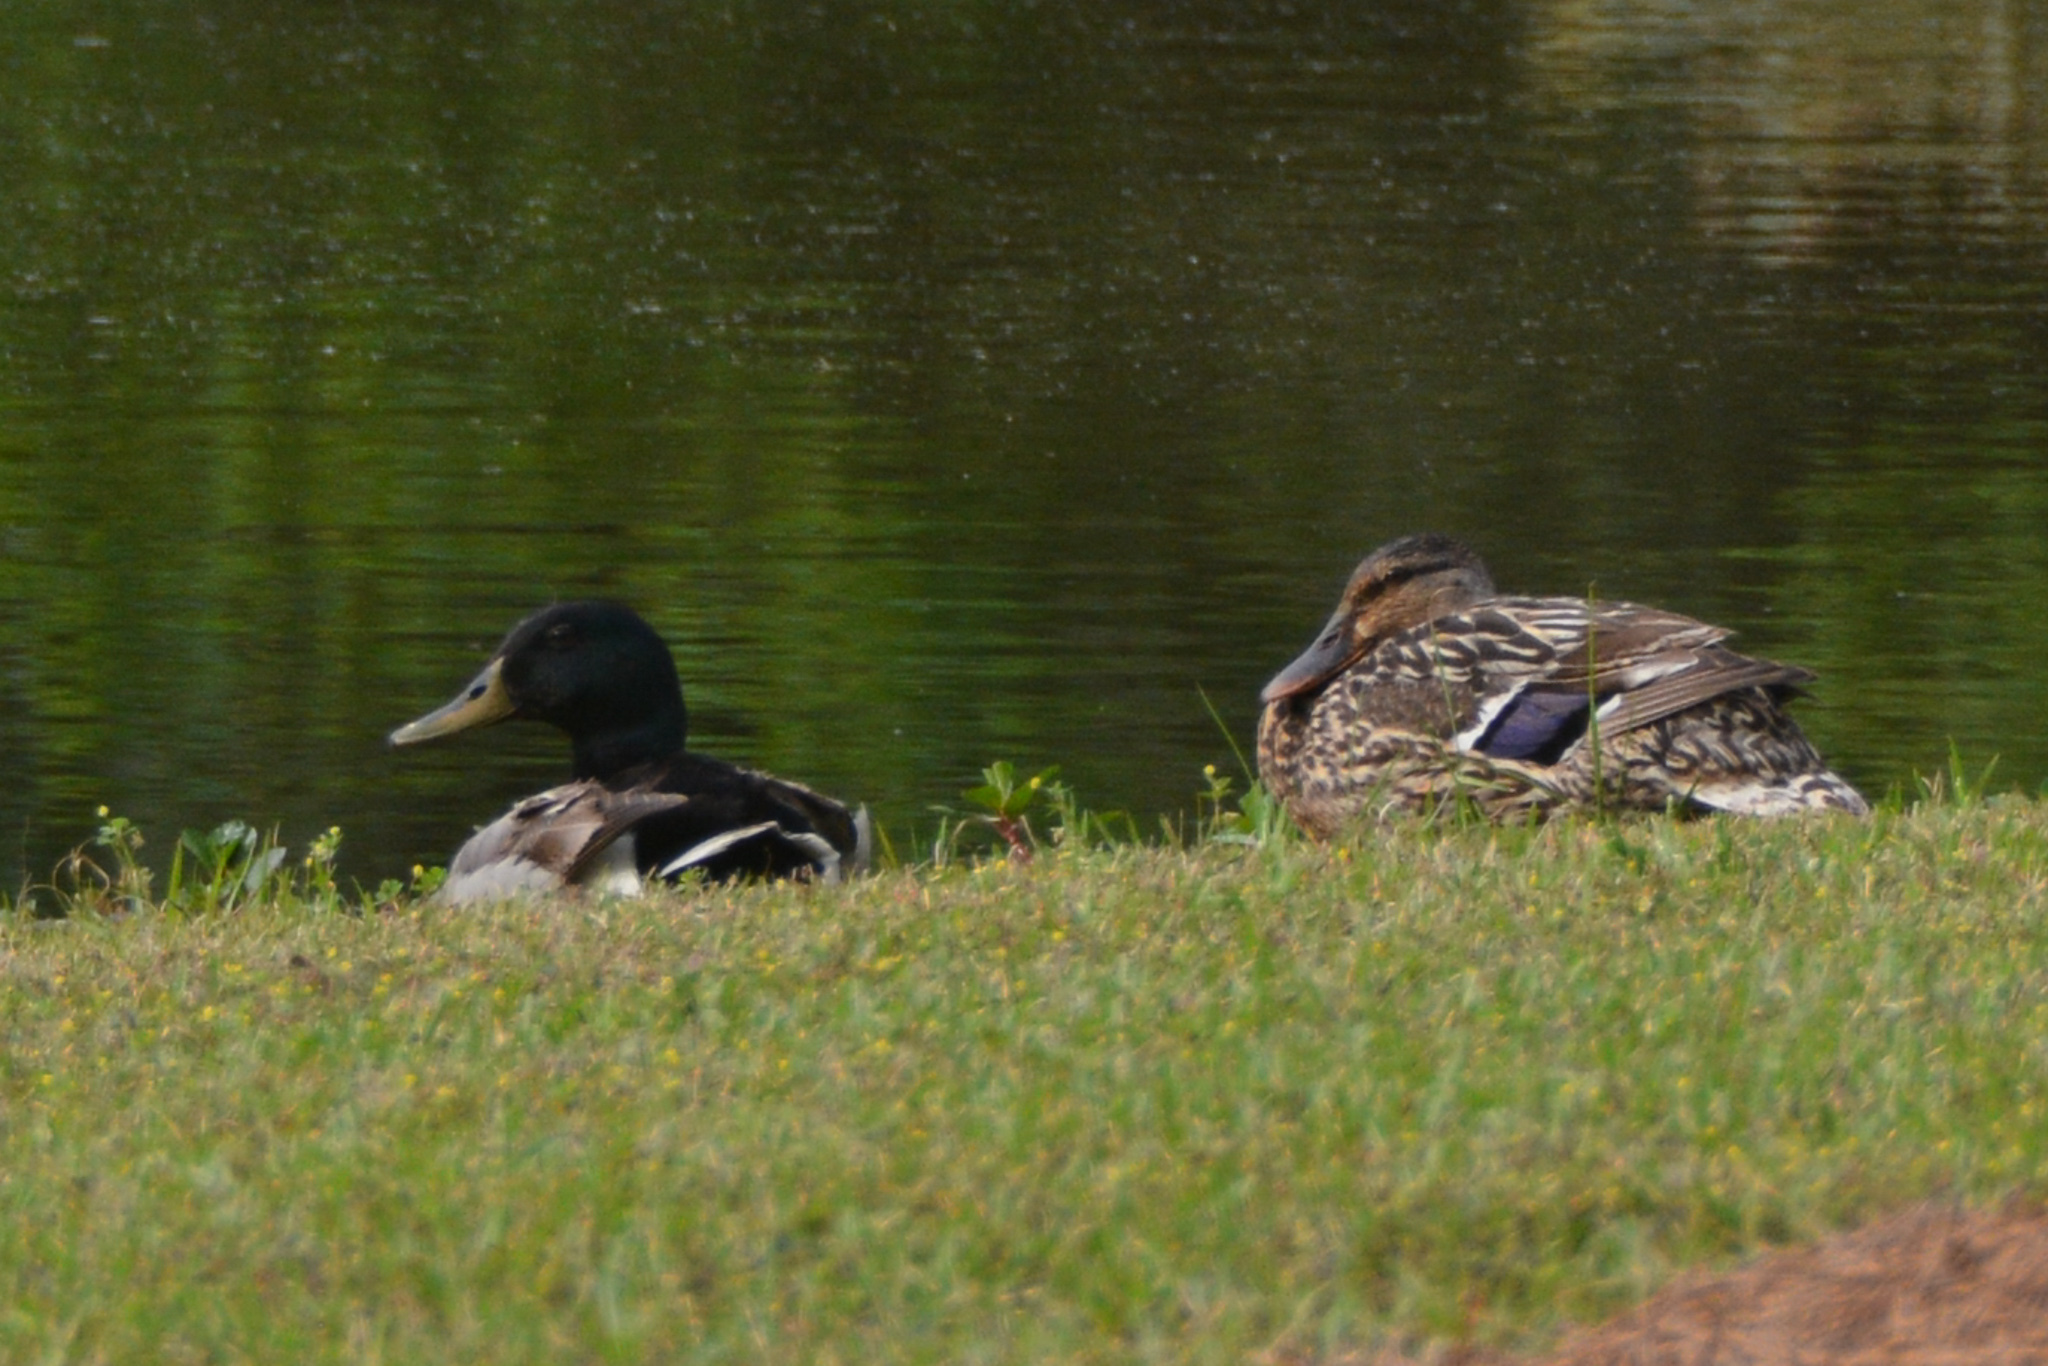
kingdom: Animalia
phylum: Chordata
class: Aves
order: Anseriformes
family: Anatidae
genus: Anas
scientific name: Anas platyrhynchos
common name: Mallard
